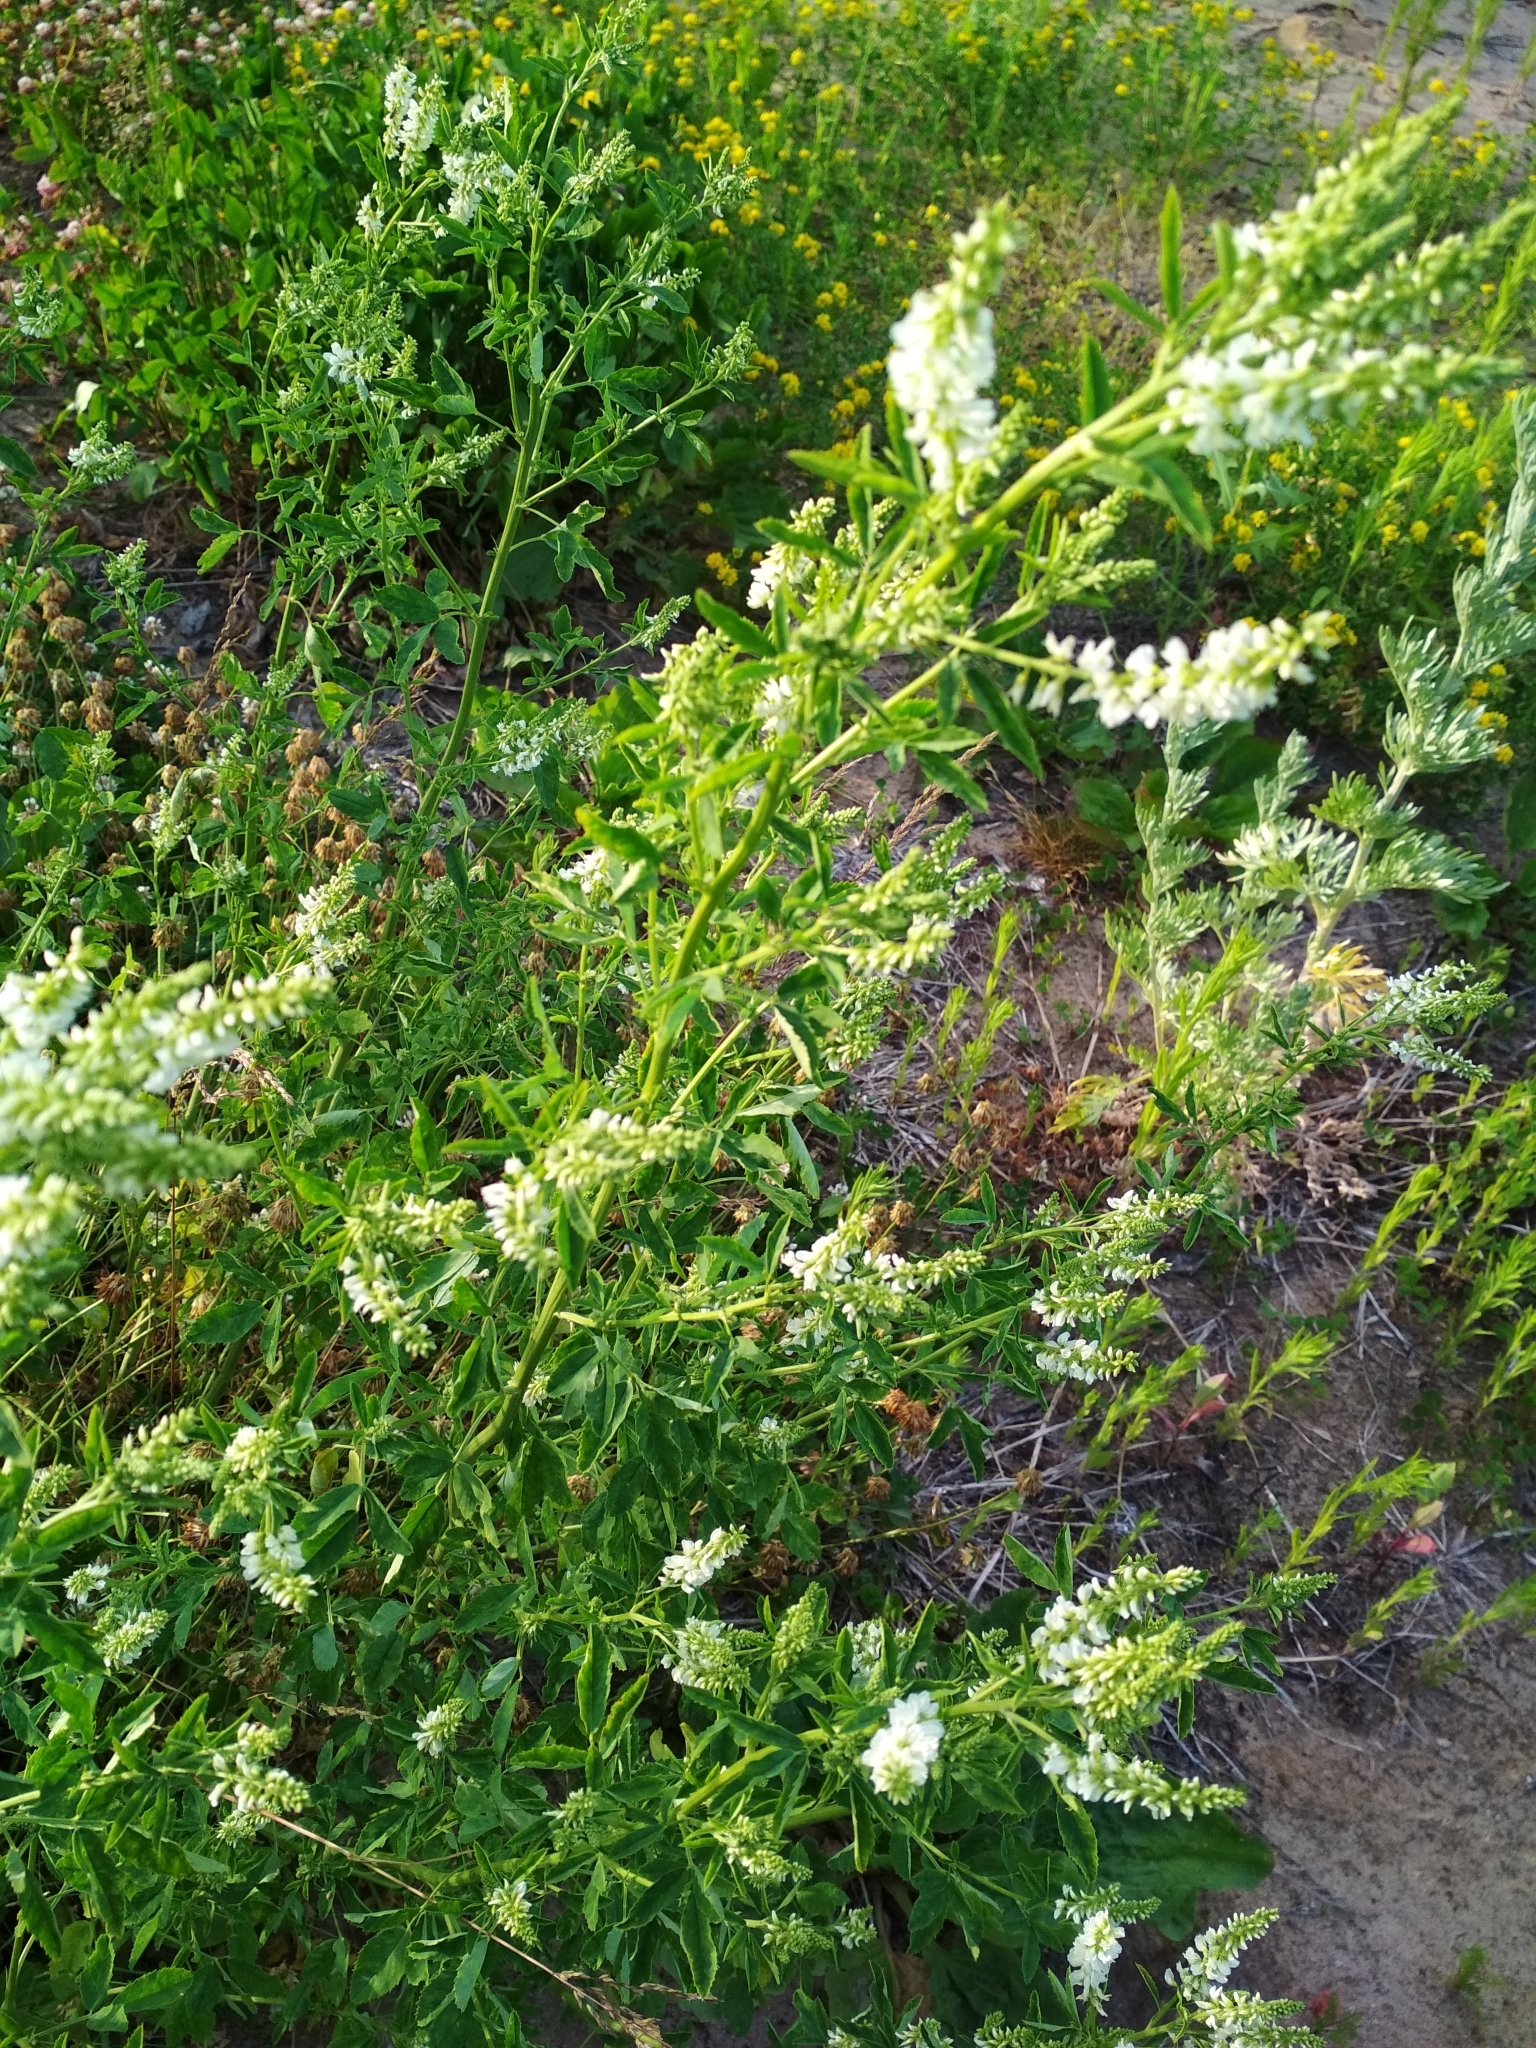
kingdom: Plantae
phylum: Tracheophyta
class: Magnoliopsida
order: Fabales
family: Fabaceae
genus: Melilotus
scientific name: Melilotus albus
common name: White melilot
